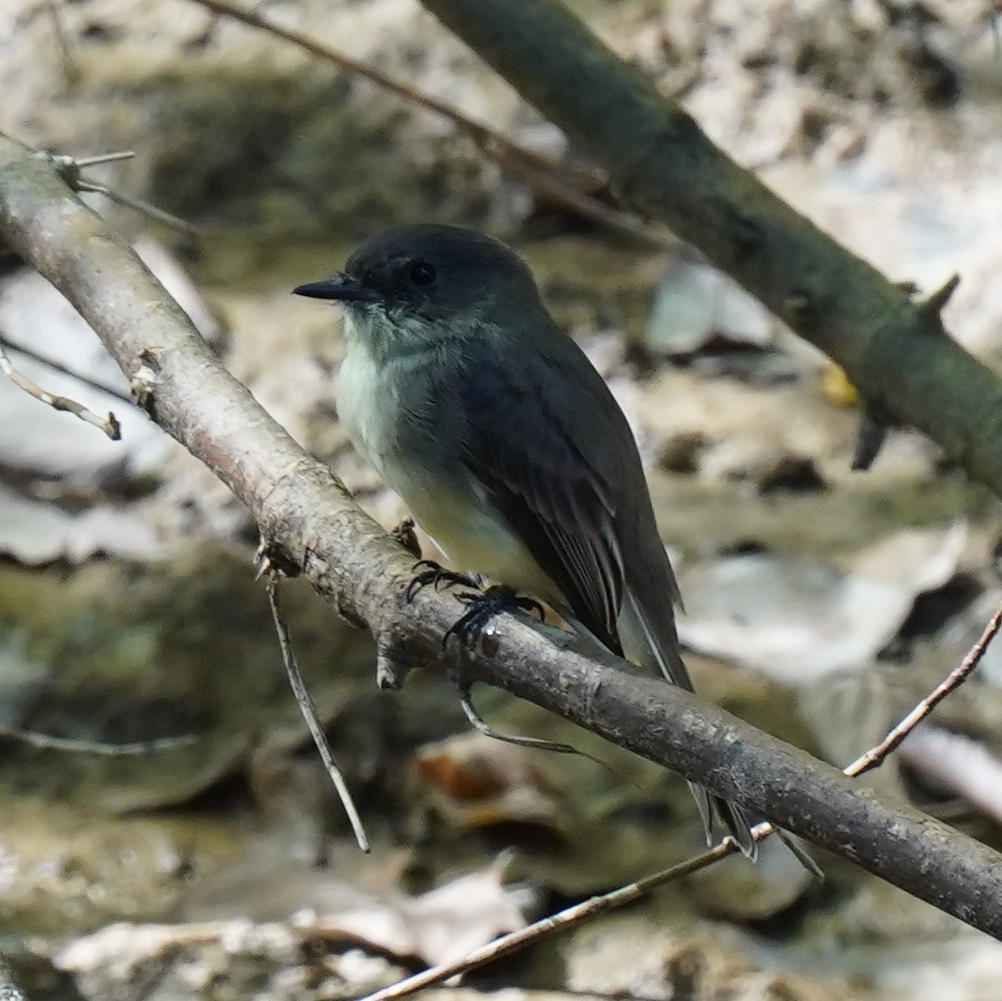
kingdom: Animalia
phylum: Chordata
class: Aves
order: Passeriformes
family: Tyrannidae
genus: Sayornis
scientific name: Sayornis phoebe
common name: Eastern phoebe
